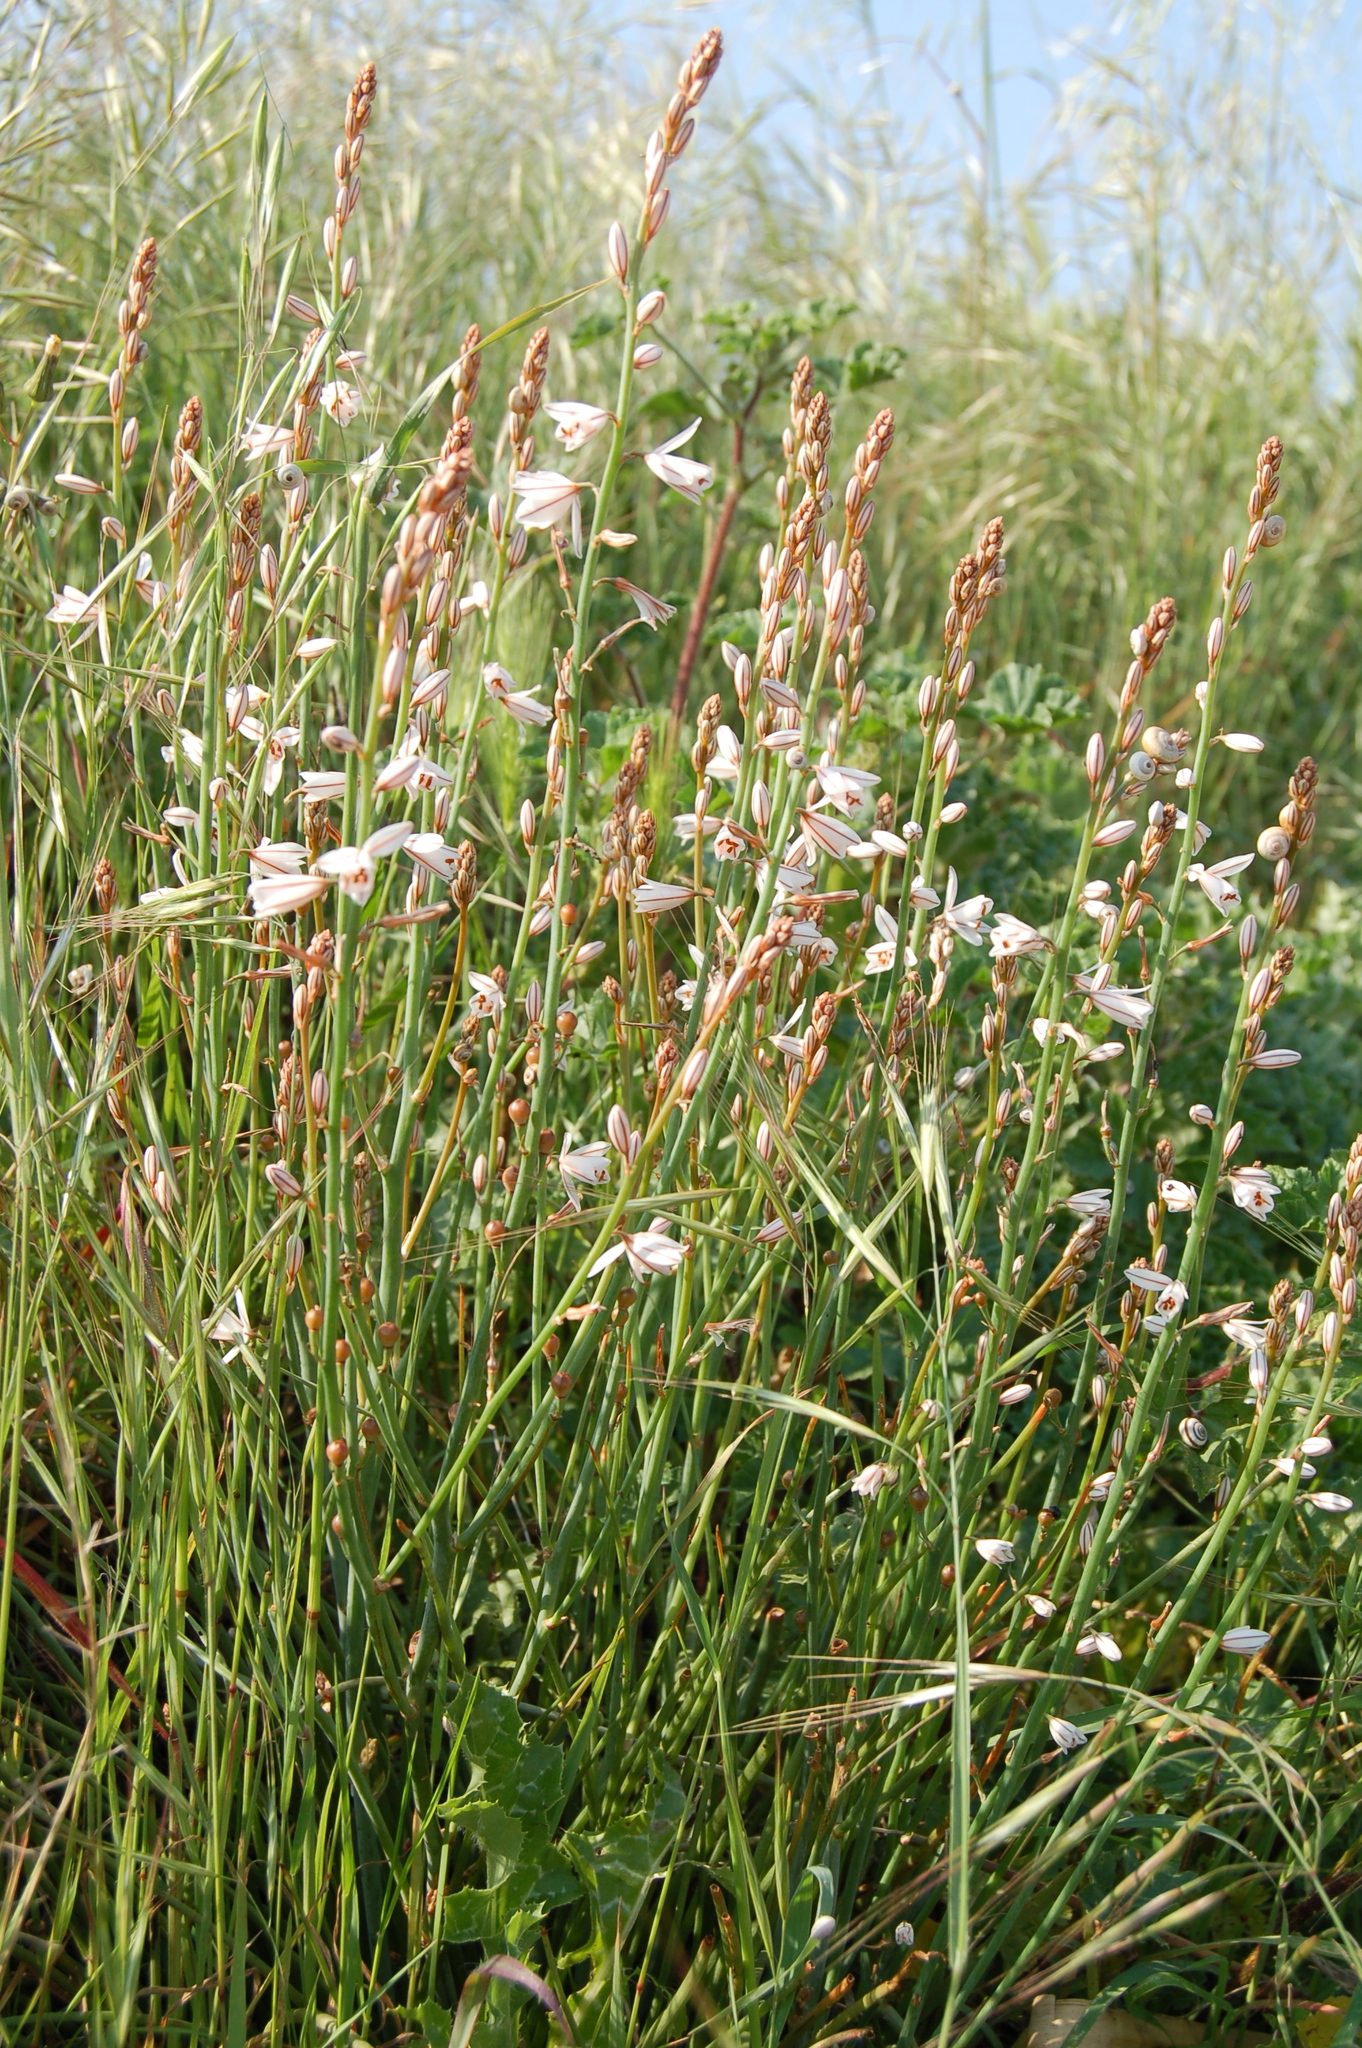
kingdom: Plantae
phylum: Tracheophyta
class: Liliopsida
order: Asparagales
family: Asphodelaceae
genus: Asphodelus
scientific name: Asphodelus fistulosus
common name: Onionweed
